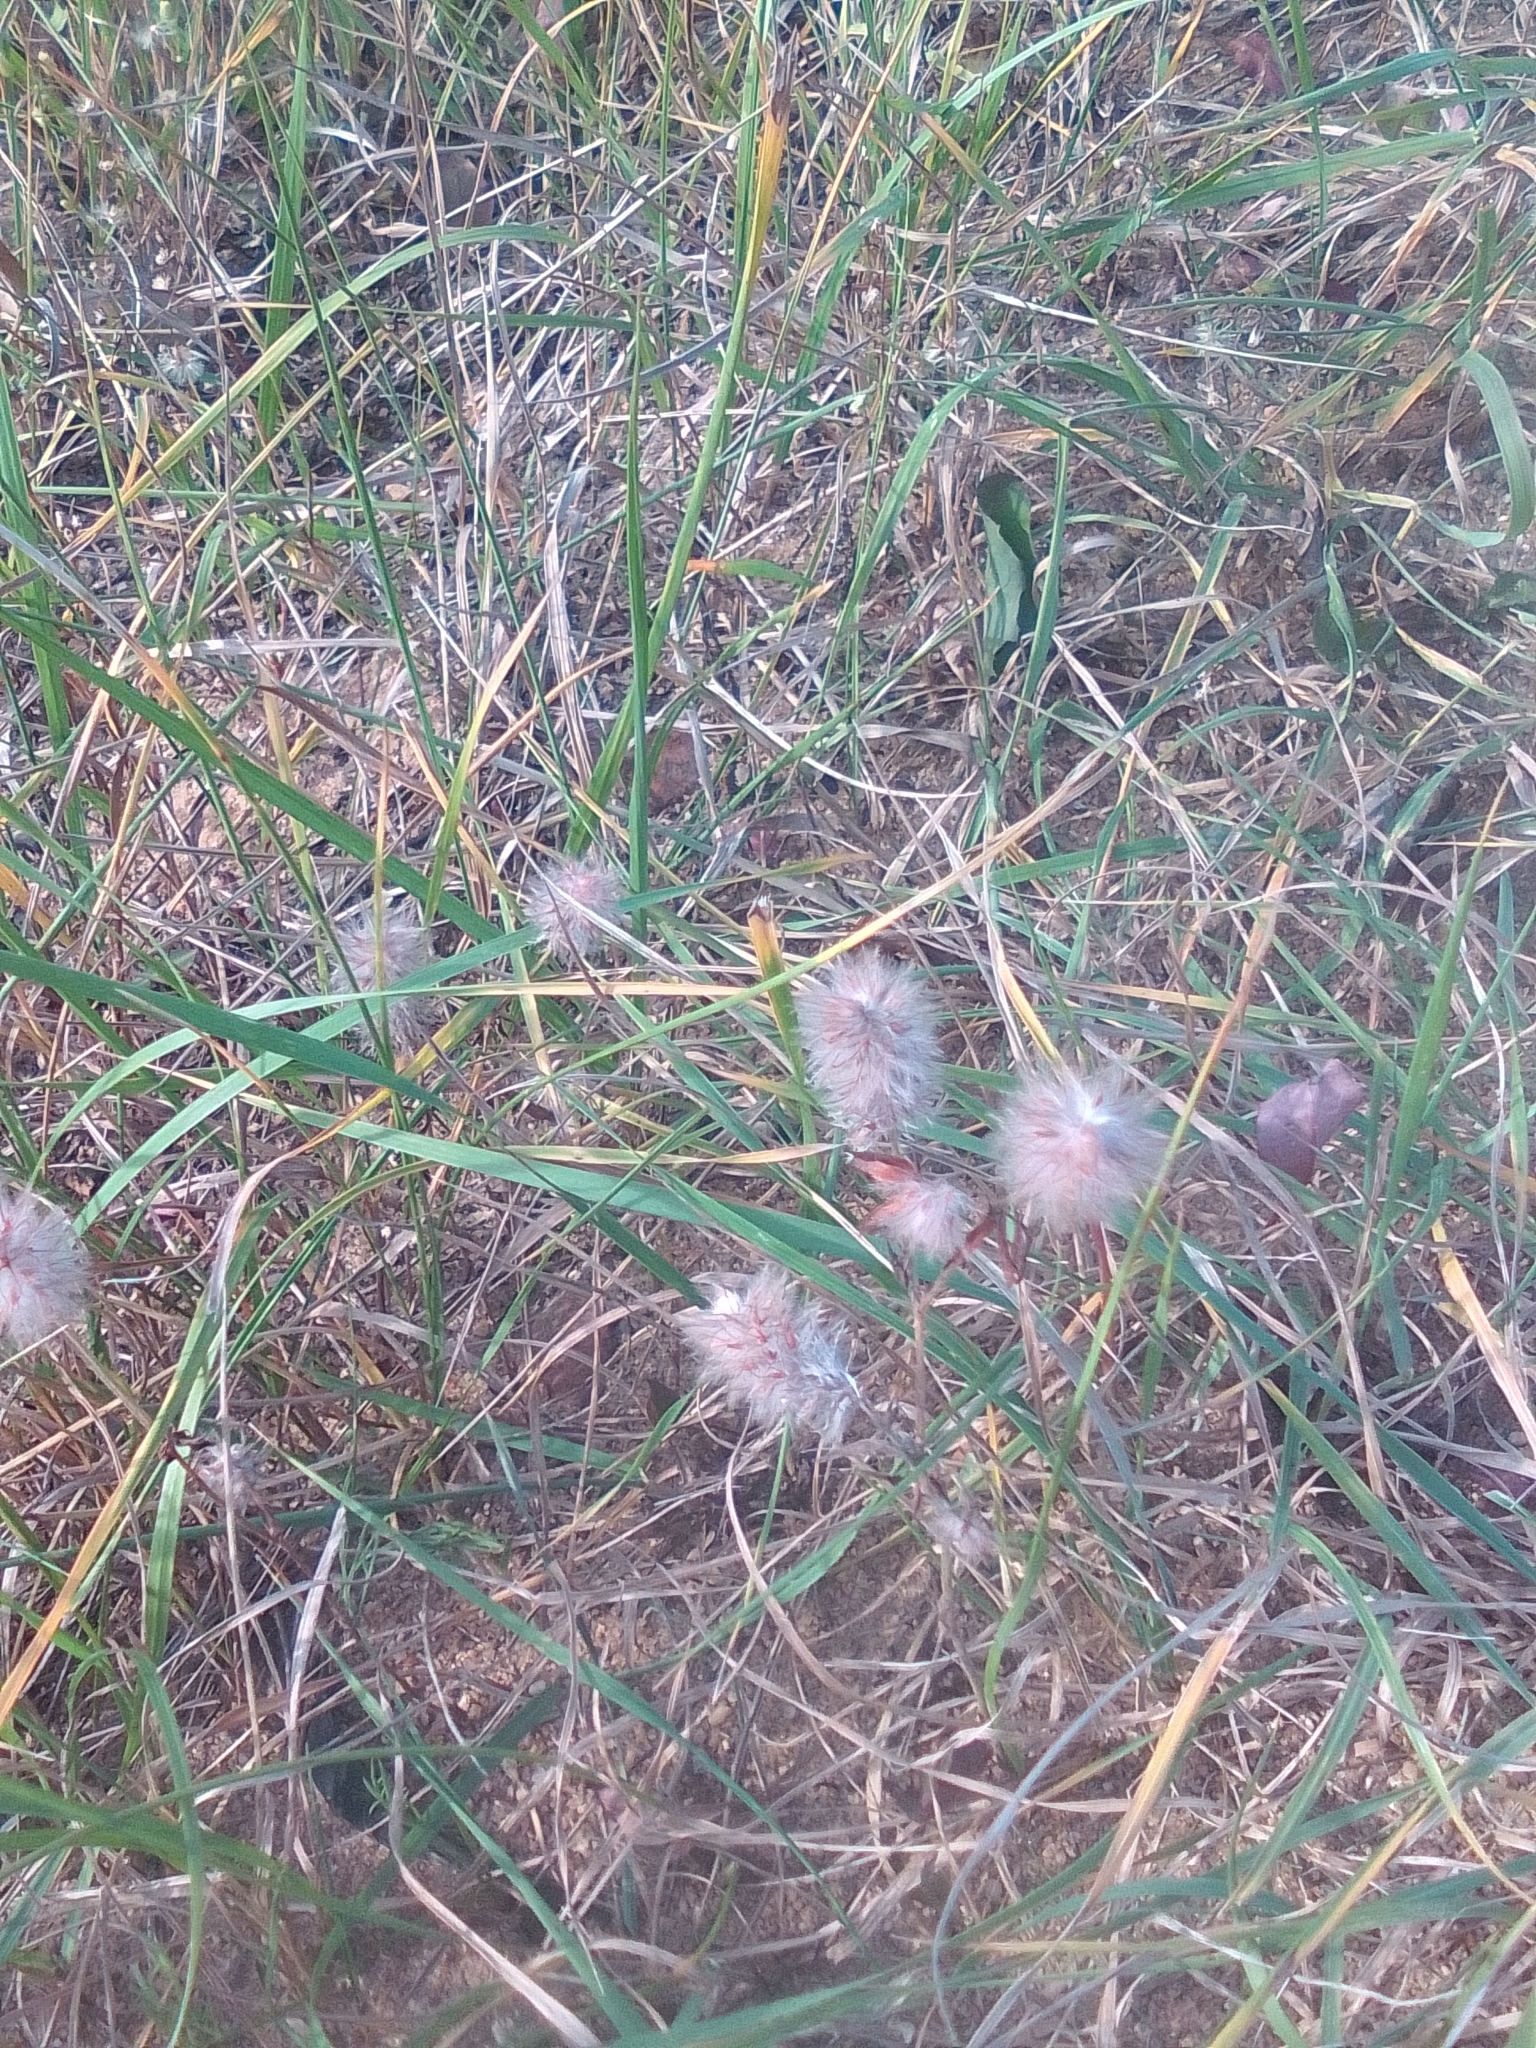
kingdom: Plantae
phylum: Tracheophyta
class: Magnoliopsida
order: Fabales
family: Fabaceae
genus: Trifolium
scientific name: Trifolium arvense
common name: Hare's-foot clover
